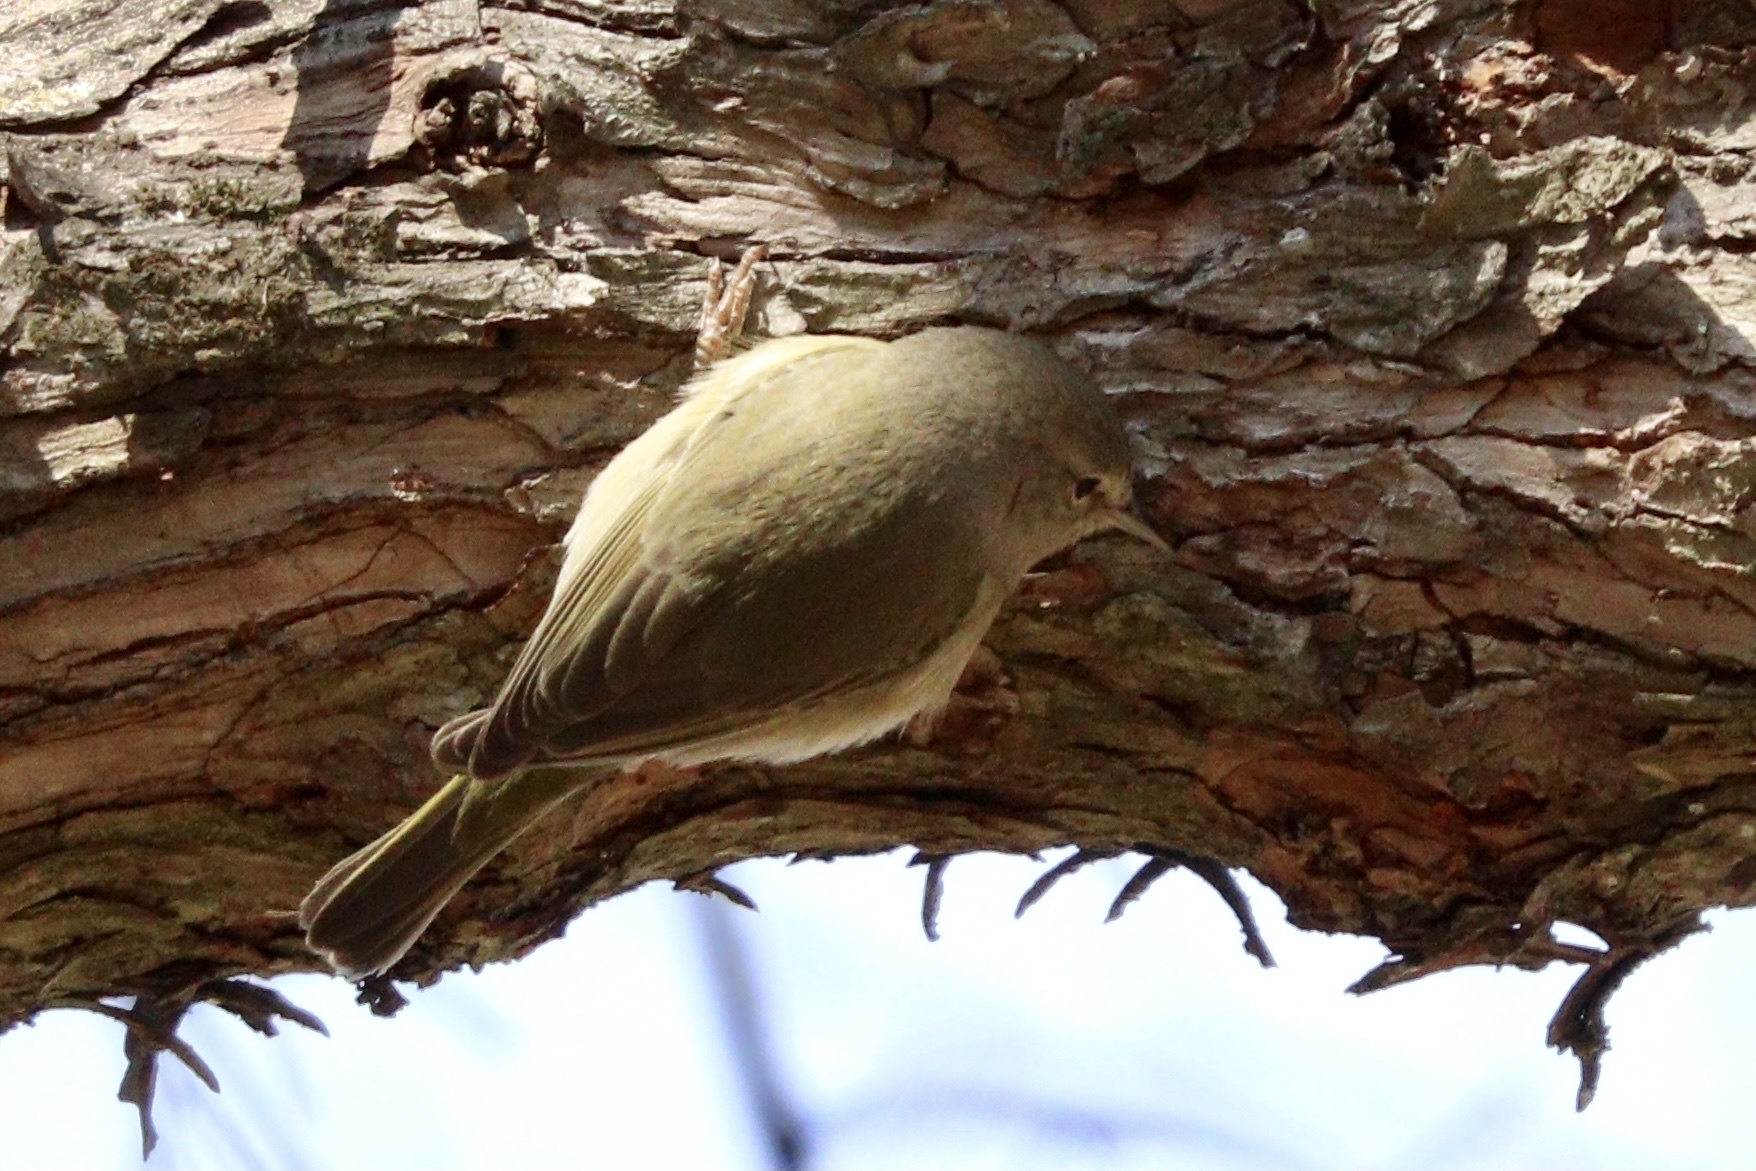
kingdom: Animalia
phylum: Chordata
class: Aves
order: Passeriformes
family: Parulidae
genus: Leiothlypis
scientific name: Leiothlypis celata
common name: Orange-crowned warbler
